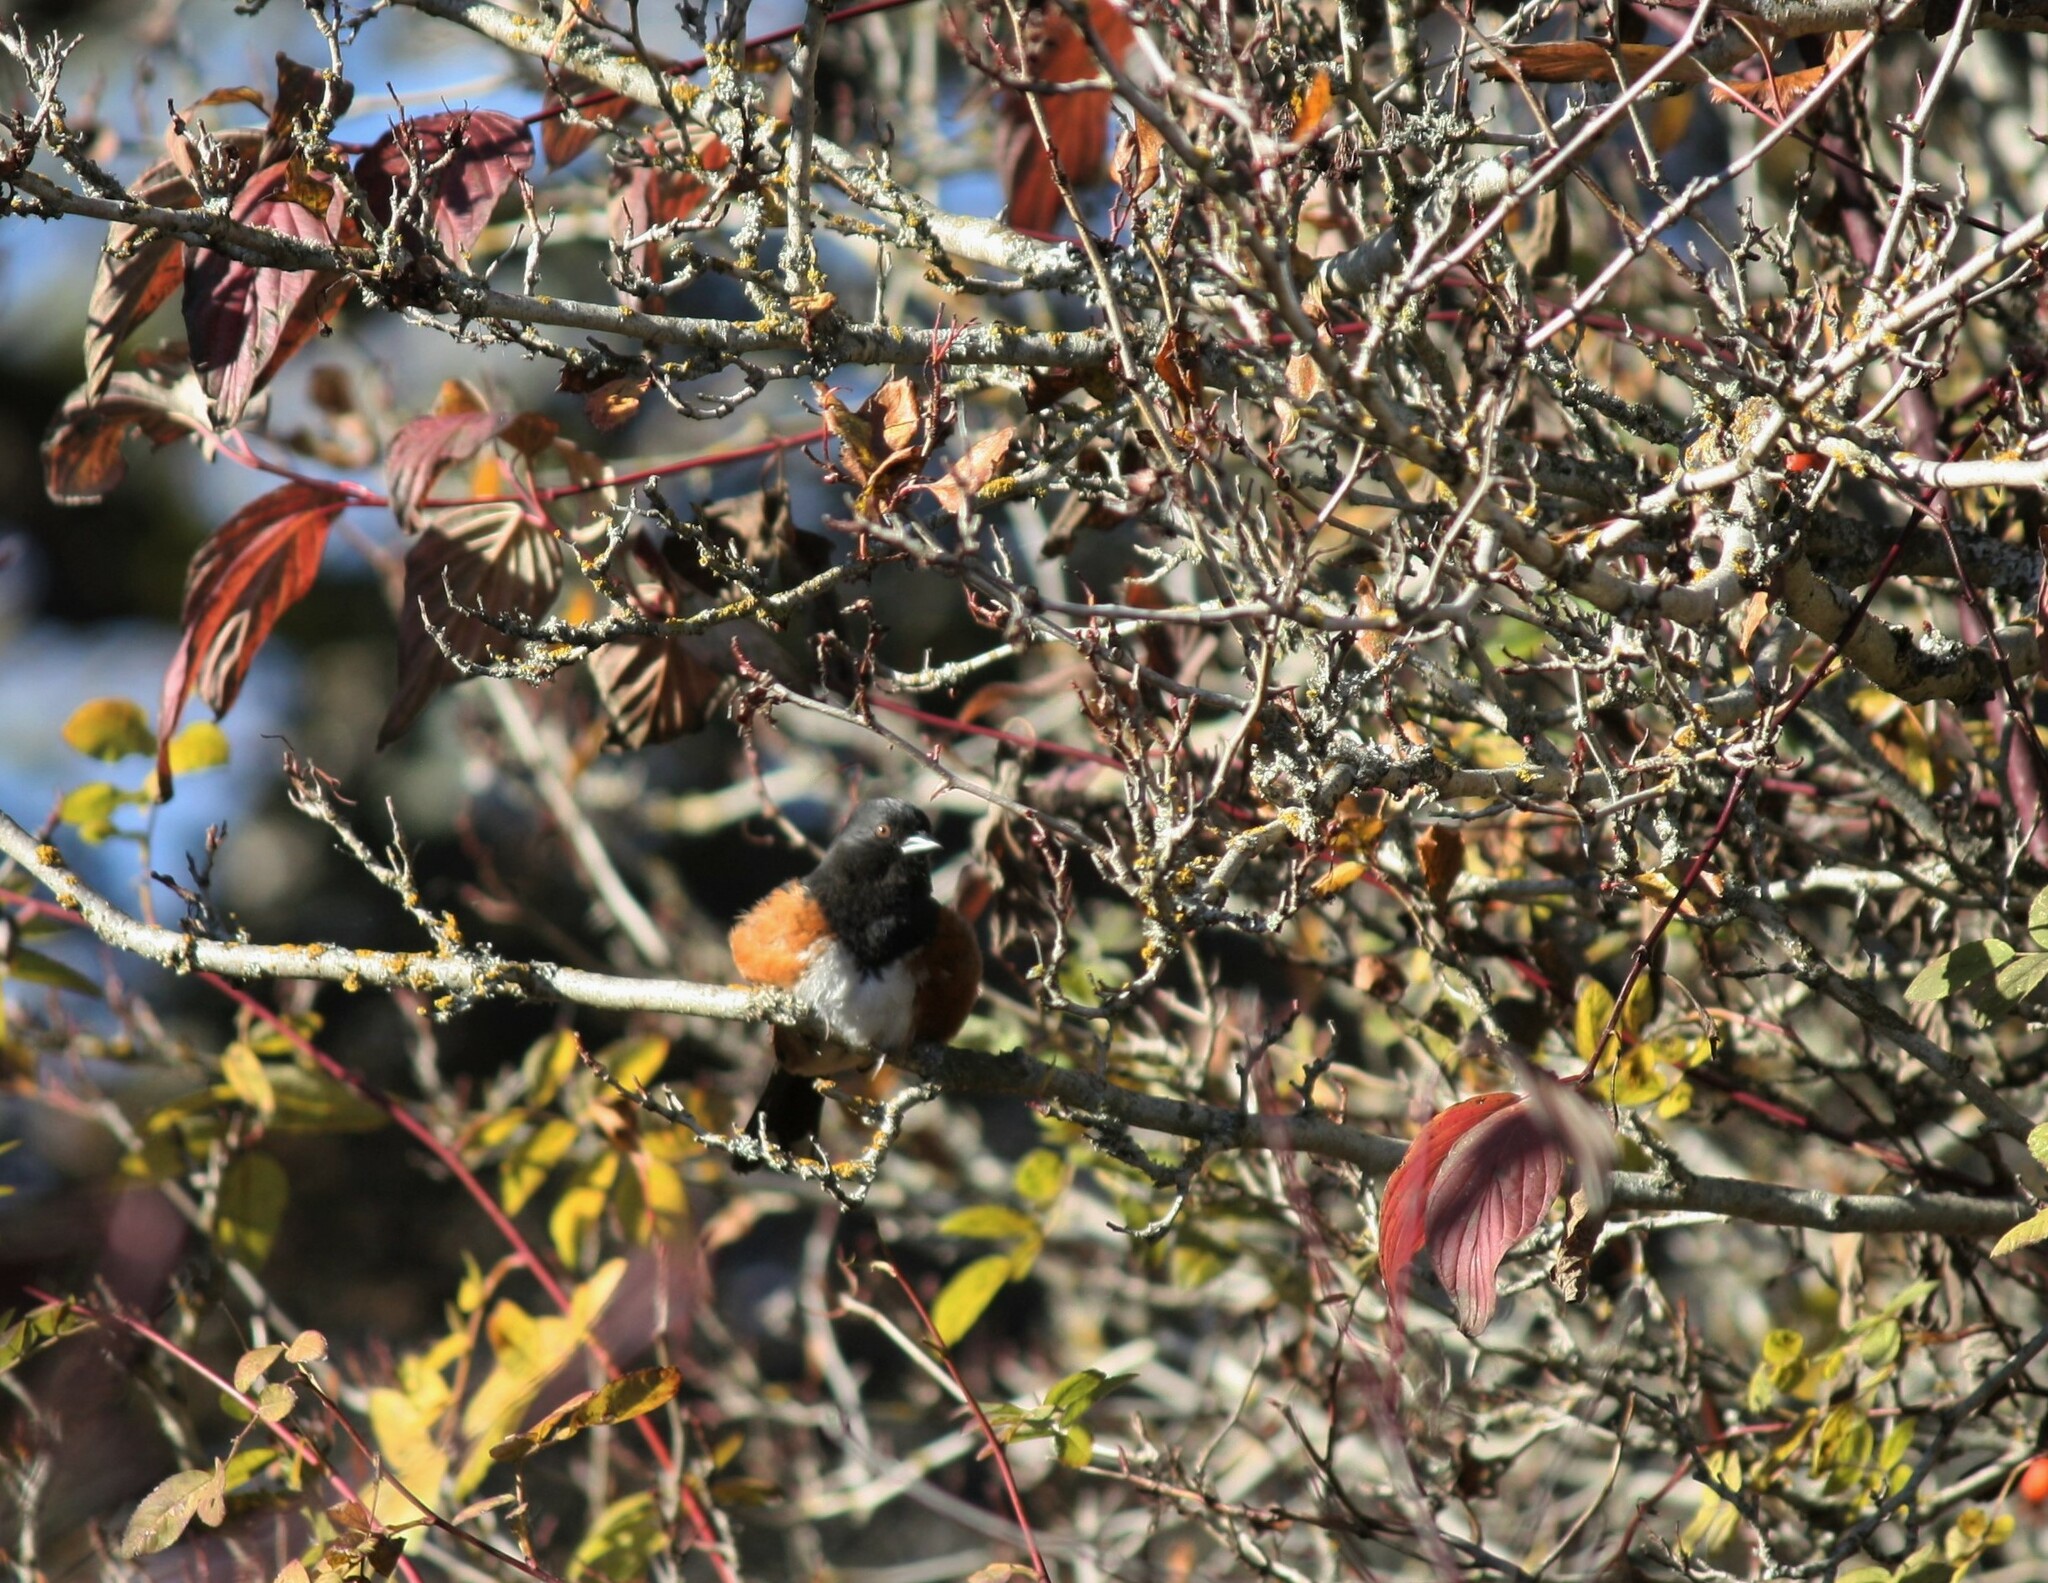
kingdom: Animalia
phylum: Chordata
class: Aves
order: Passeriformes
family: Passerellidae
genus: Pipilo
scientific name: Pipilo maculatus
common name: Spotted towhee
